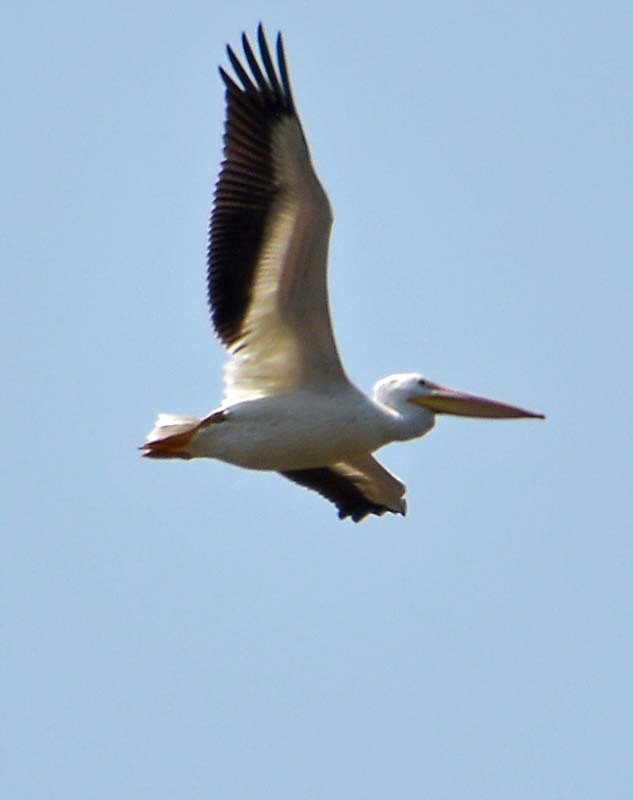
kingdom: Animalia
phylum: Chordata
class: Aves
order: Pelecaniformes
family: Pelecanidae
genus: Pelecanus
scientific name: Pelecanus erythrorhynchos
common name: American white pelican
